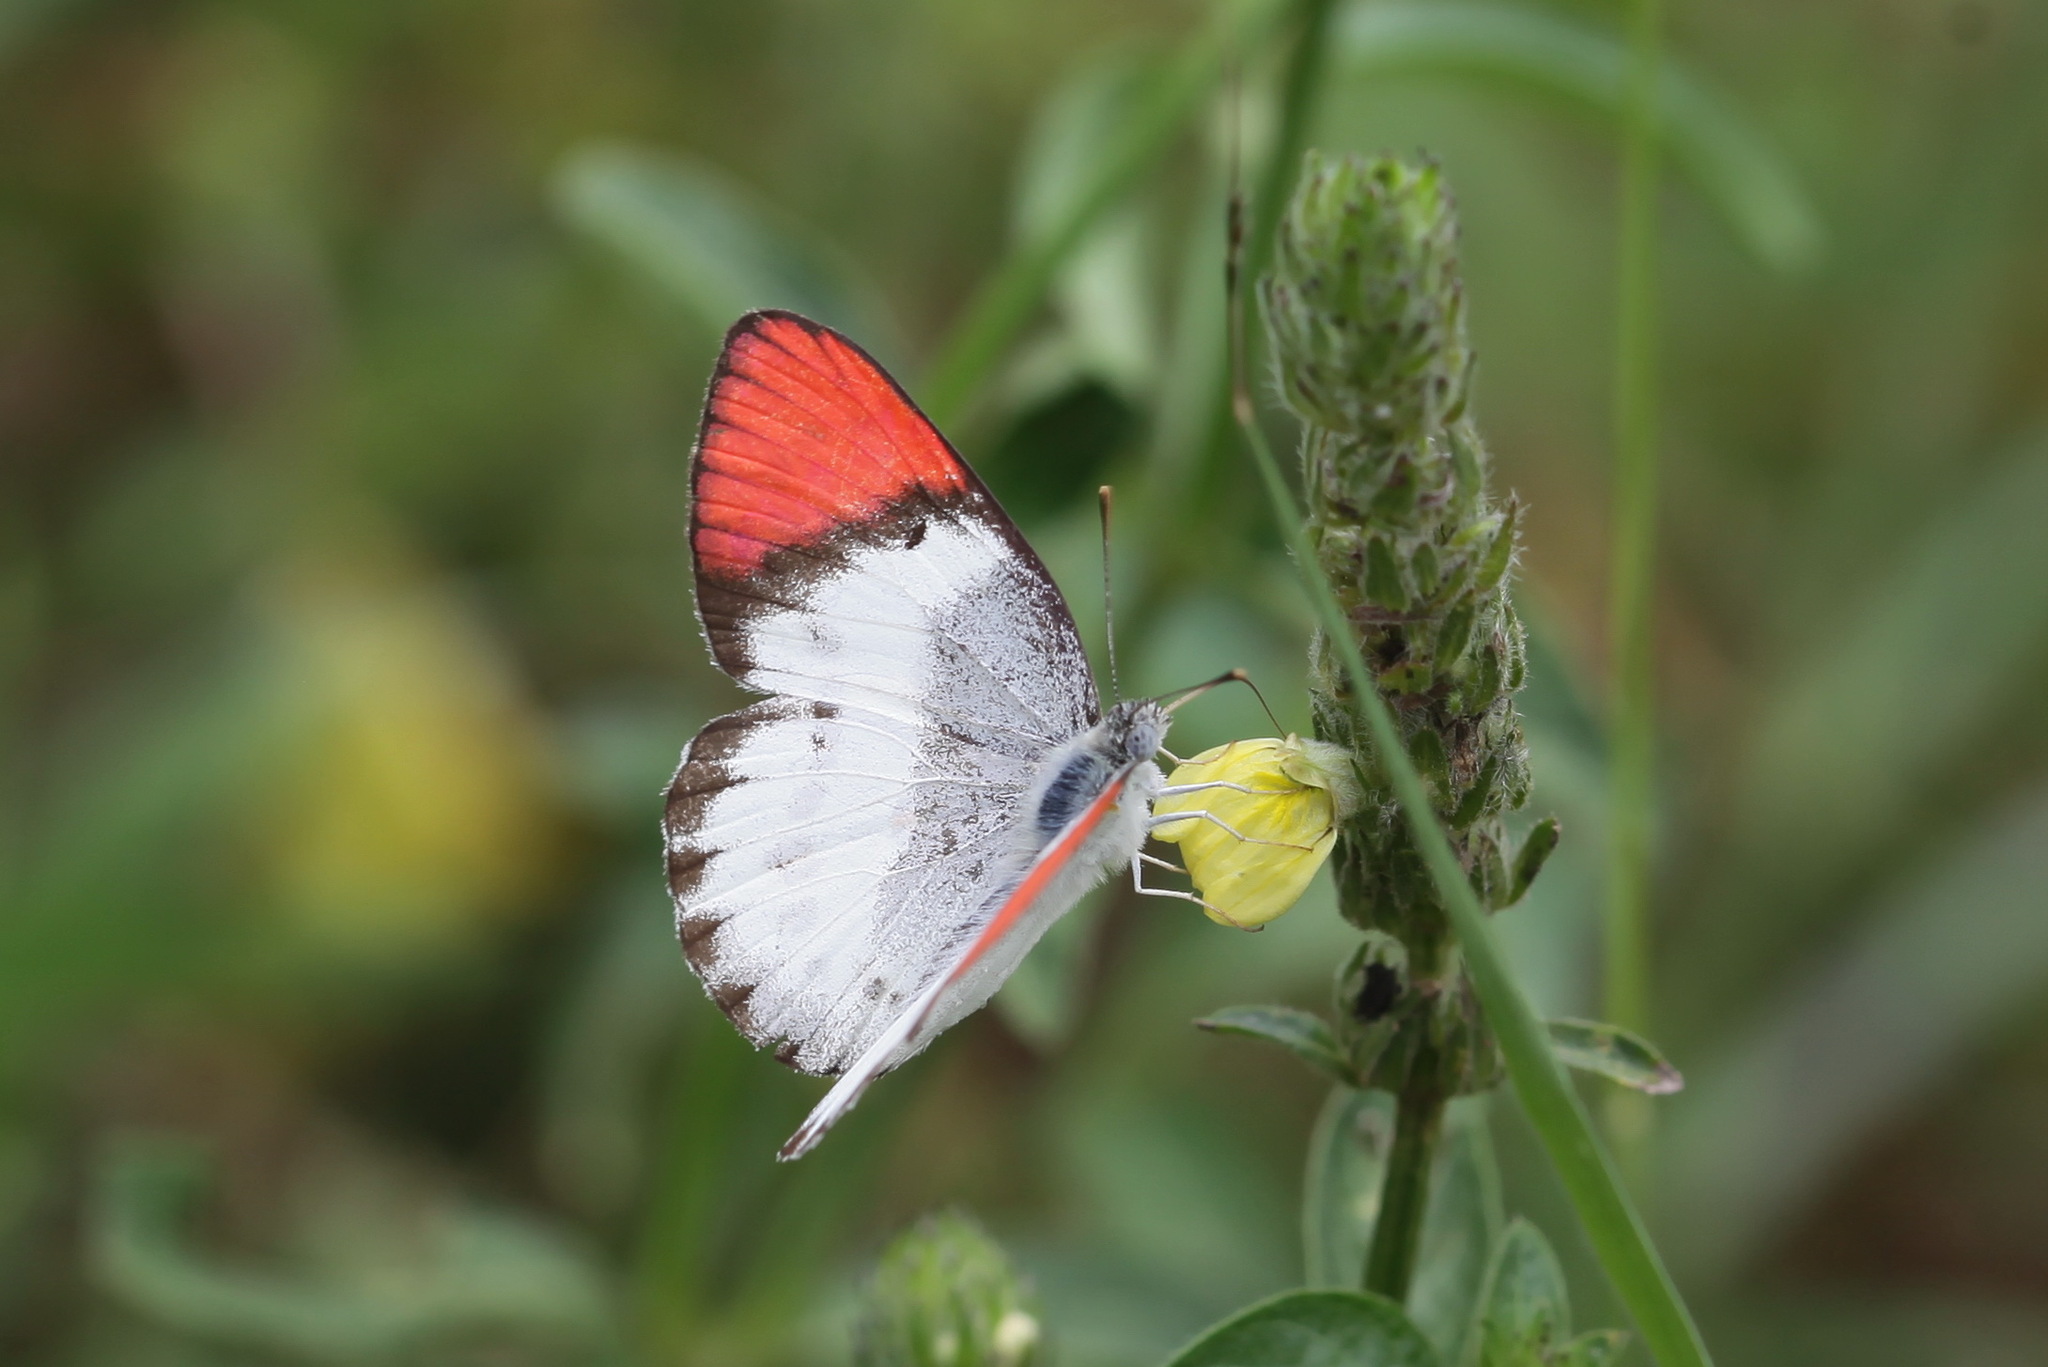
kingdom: Animalia
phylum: Arthropoda
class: Insecta
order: Lepidoptera
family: Pieridae
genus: Colotis
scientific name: Colotis annae
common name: Scarlet tip
